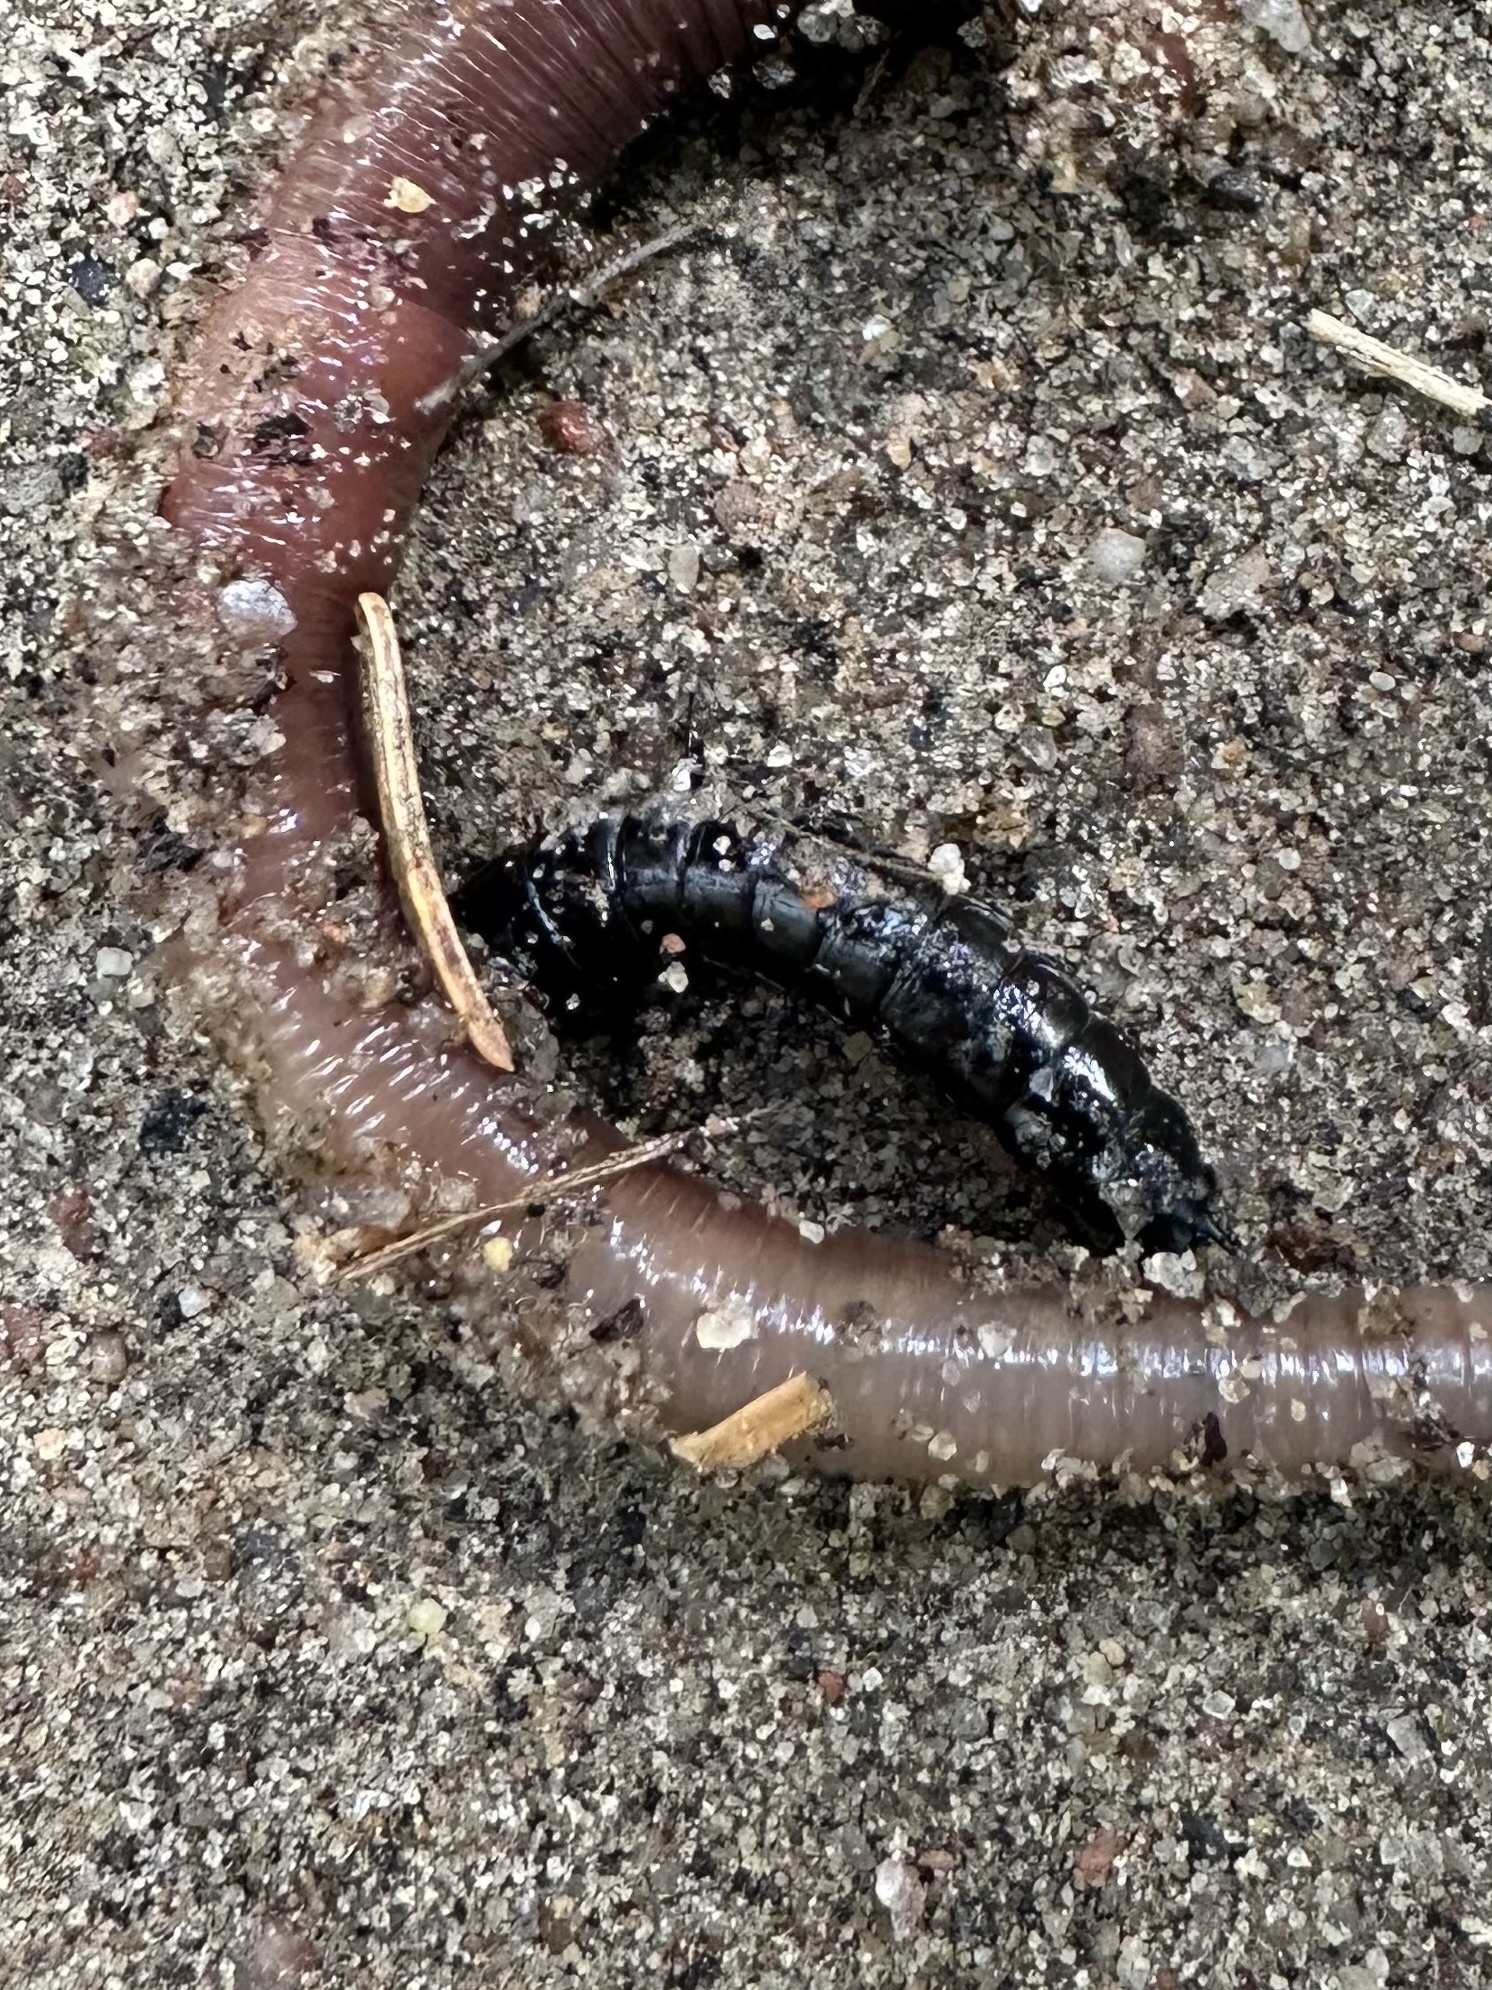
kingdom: Animalia
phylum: Arthropoda
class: Insecta
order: Coleoptera
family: Carabidae
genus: Carabus
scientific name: Carabus
